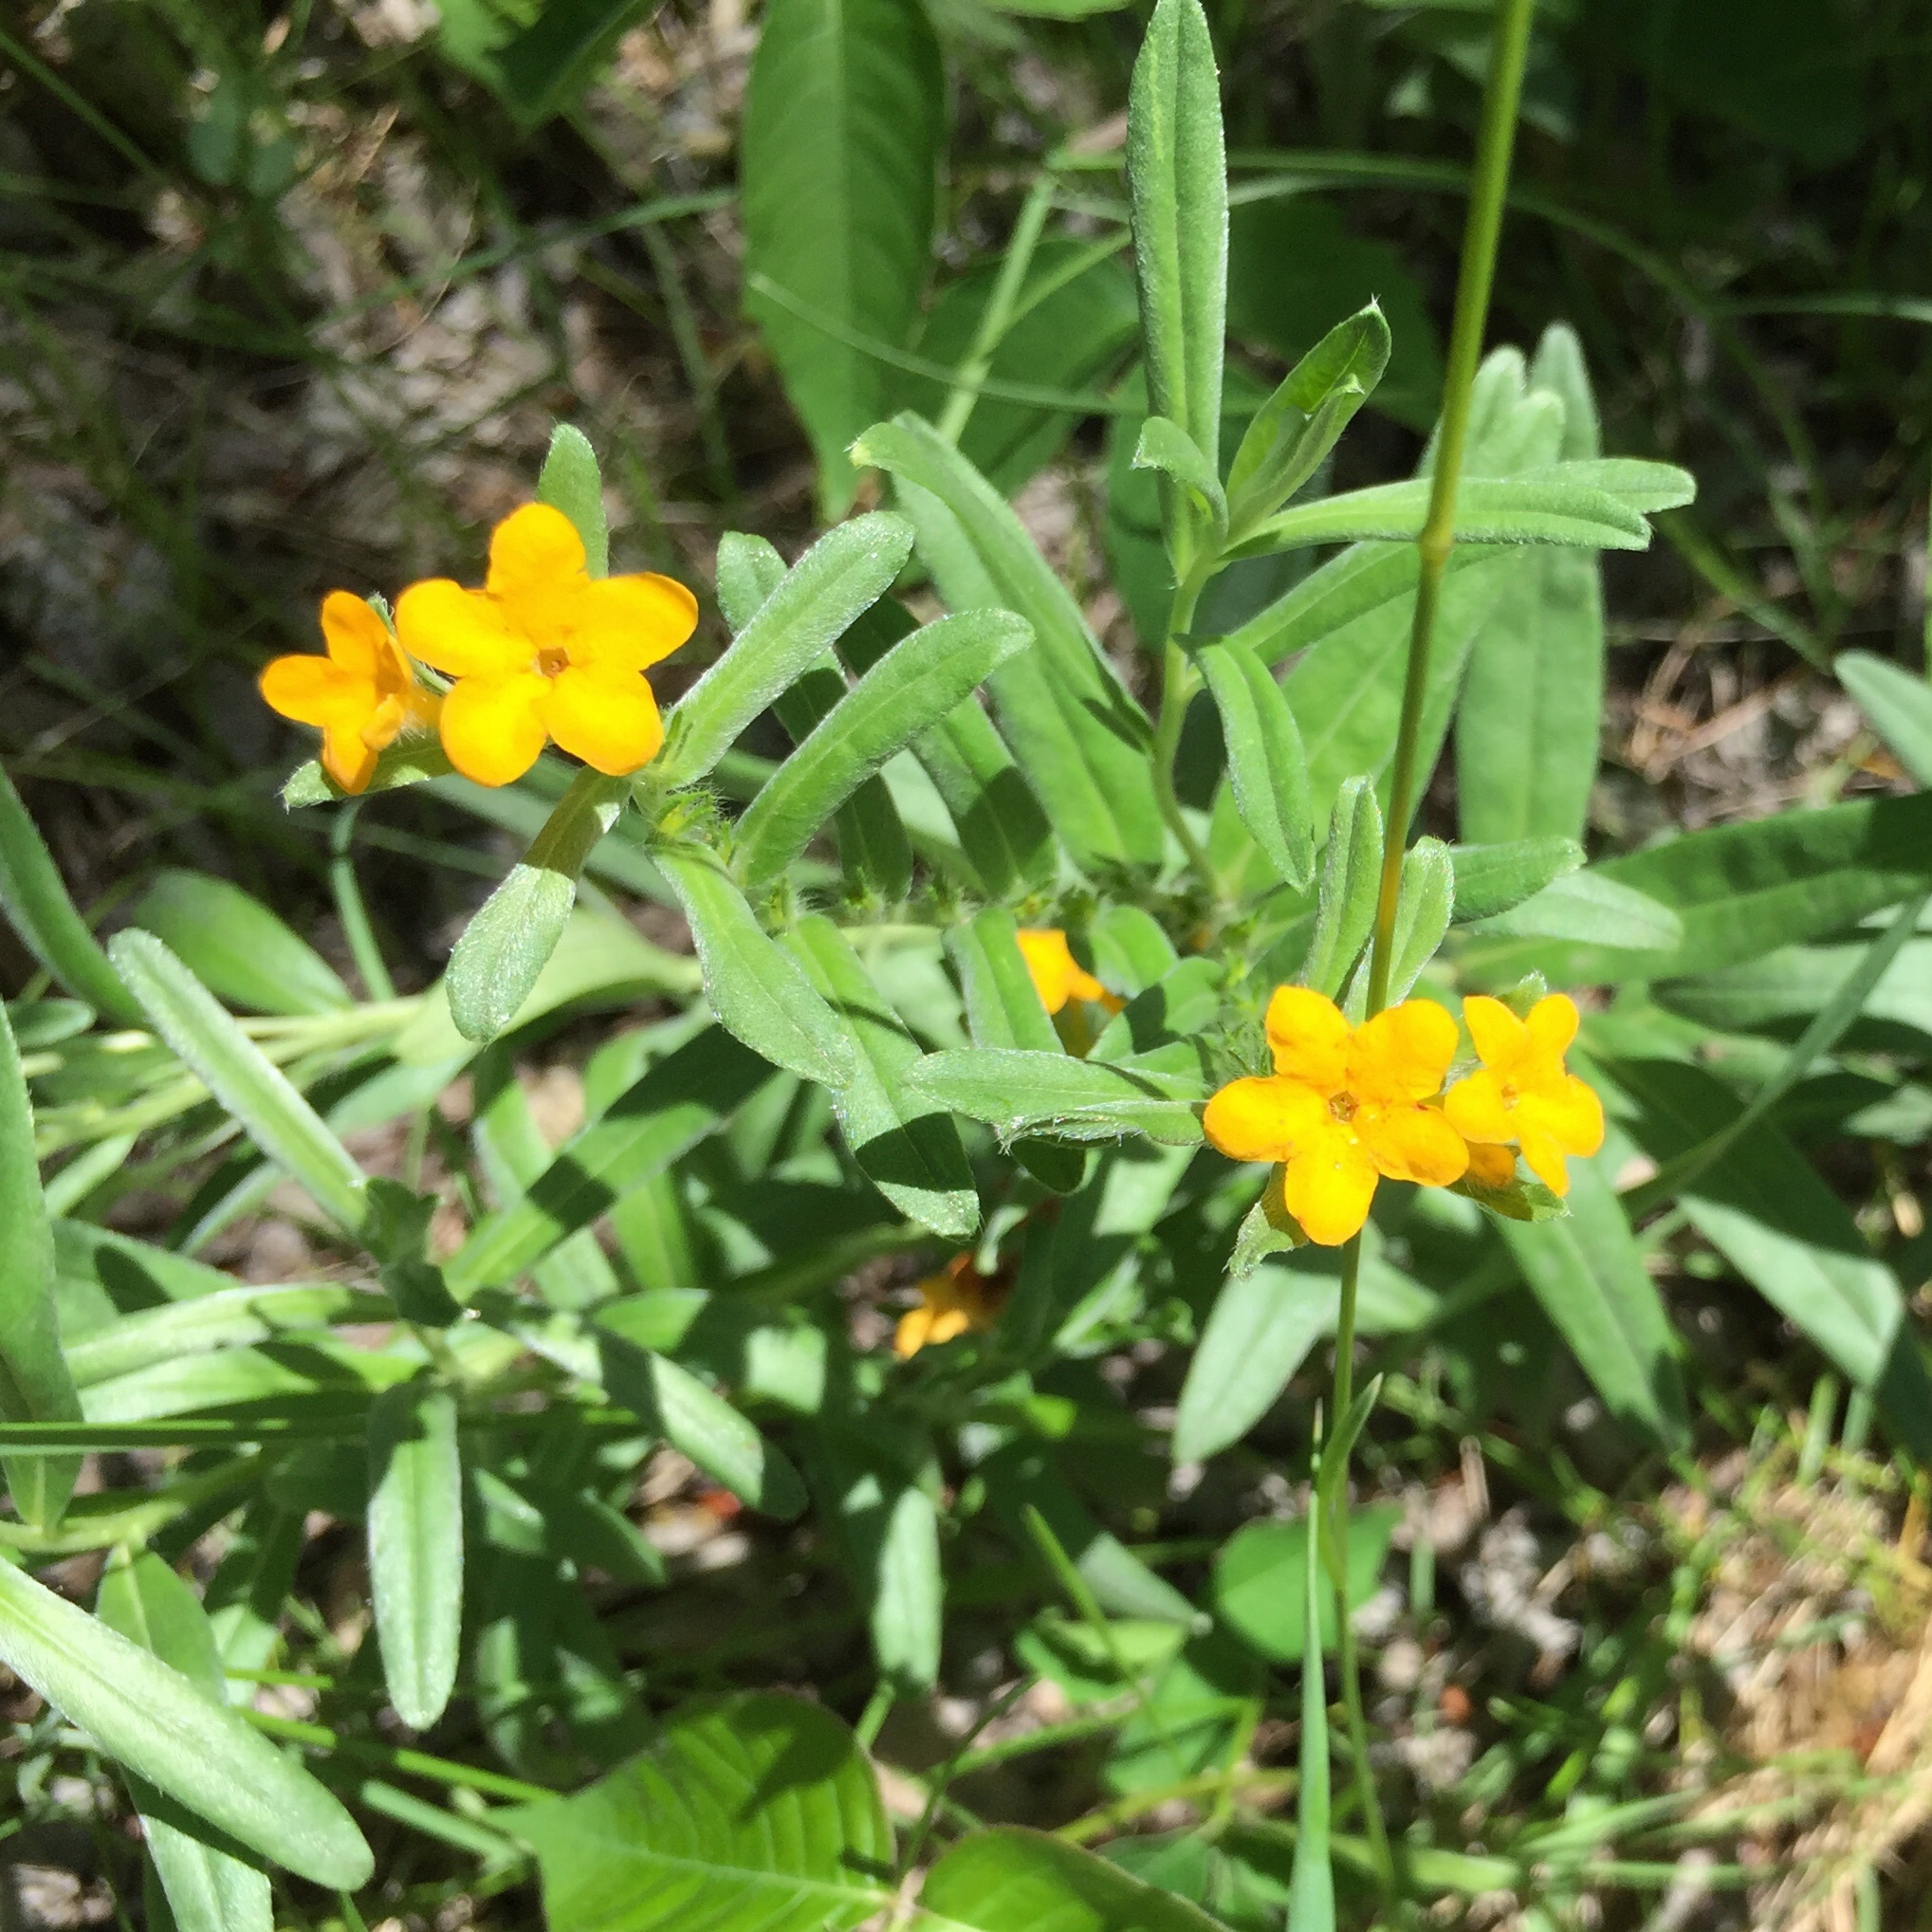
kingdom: Plantae
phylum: Tracheophyta
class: Magnoliopsida
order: Boraginales
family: Boraginaceae
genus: Lithospermum
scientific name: Lithospermum canescens
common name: Hoary puccoon
